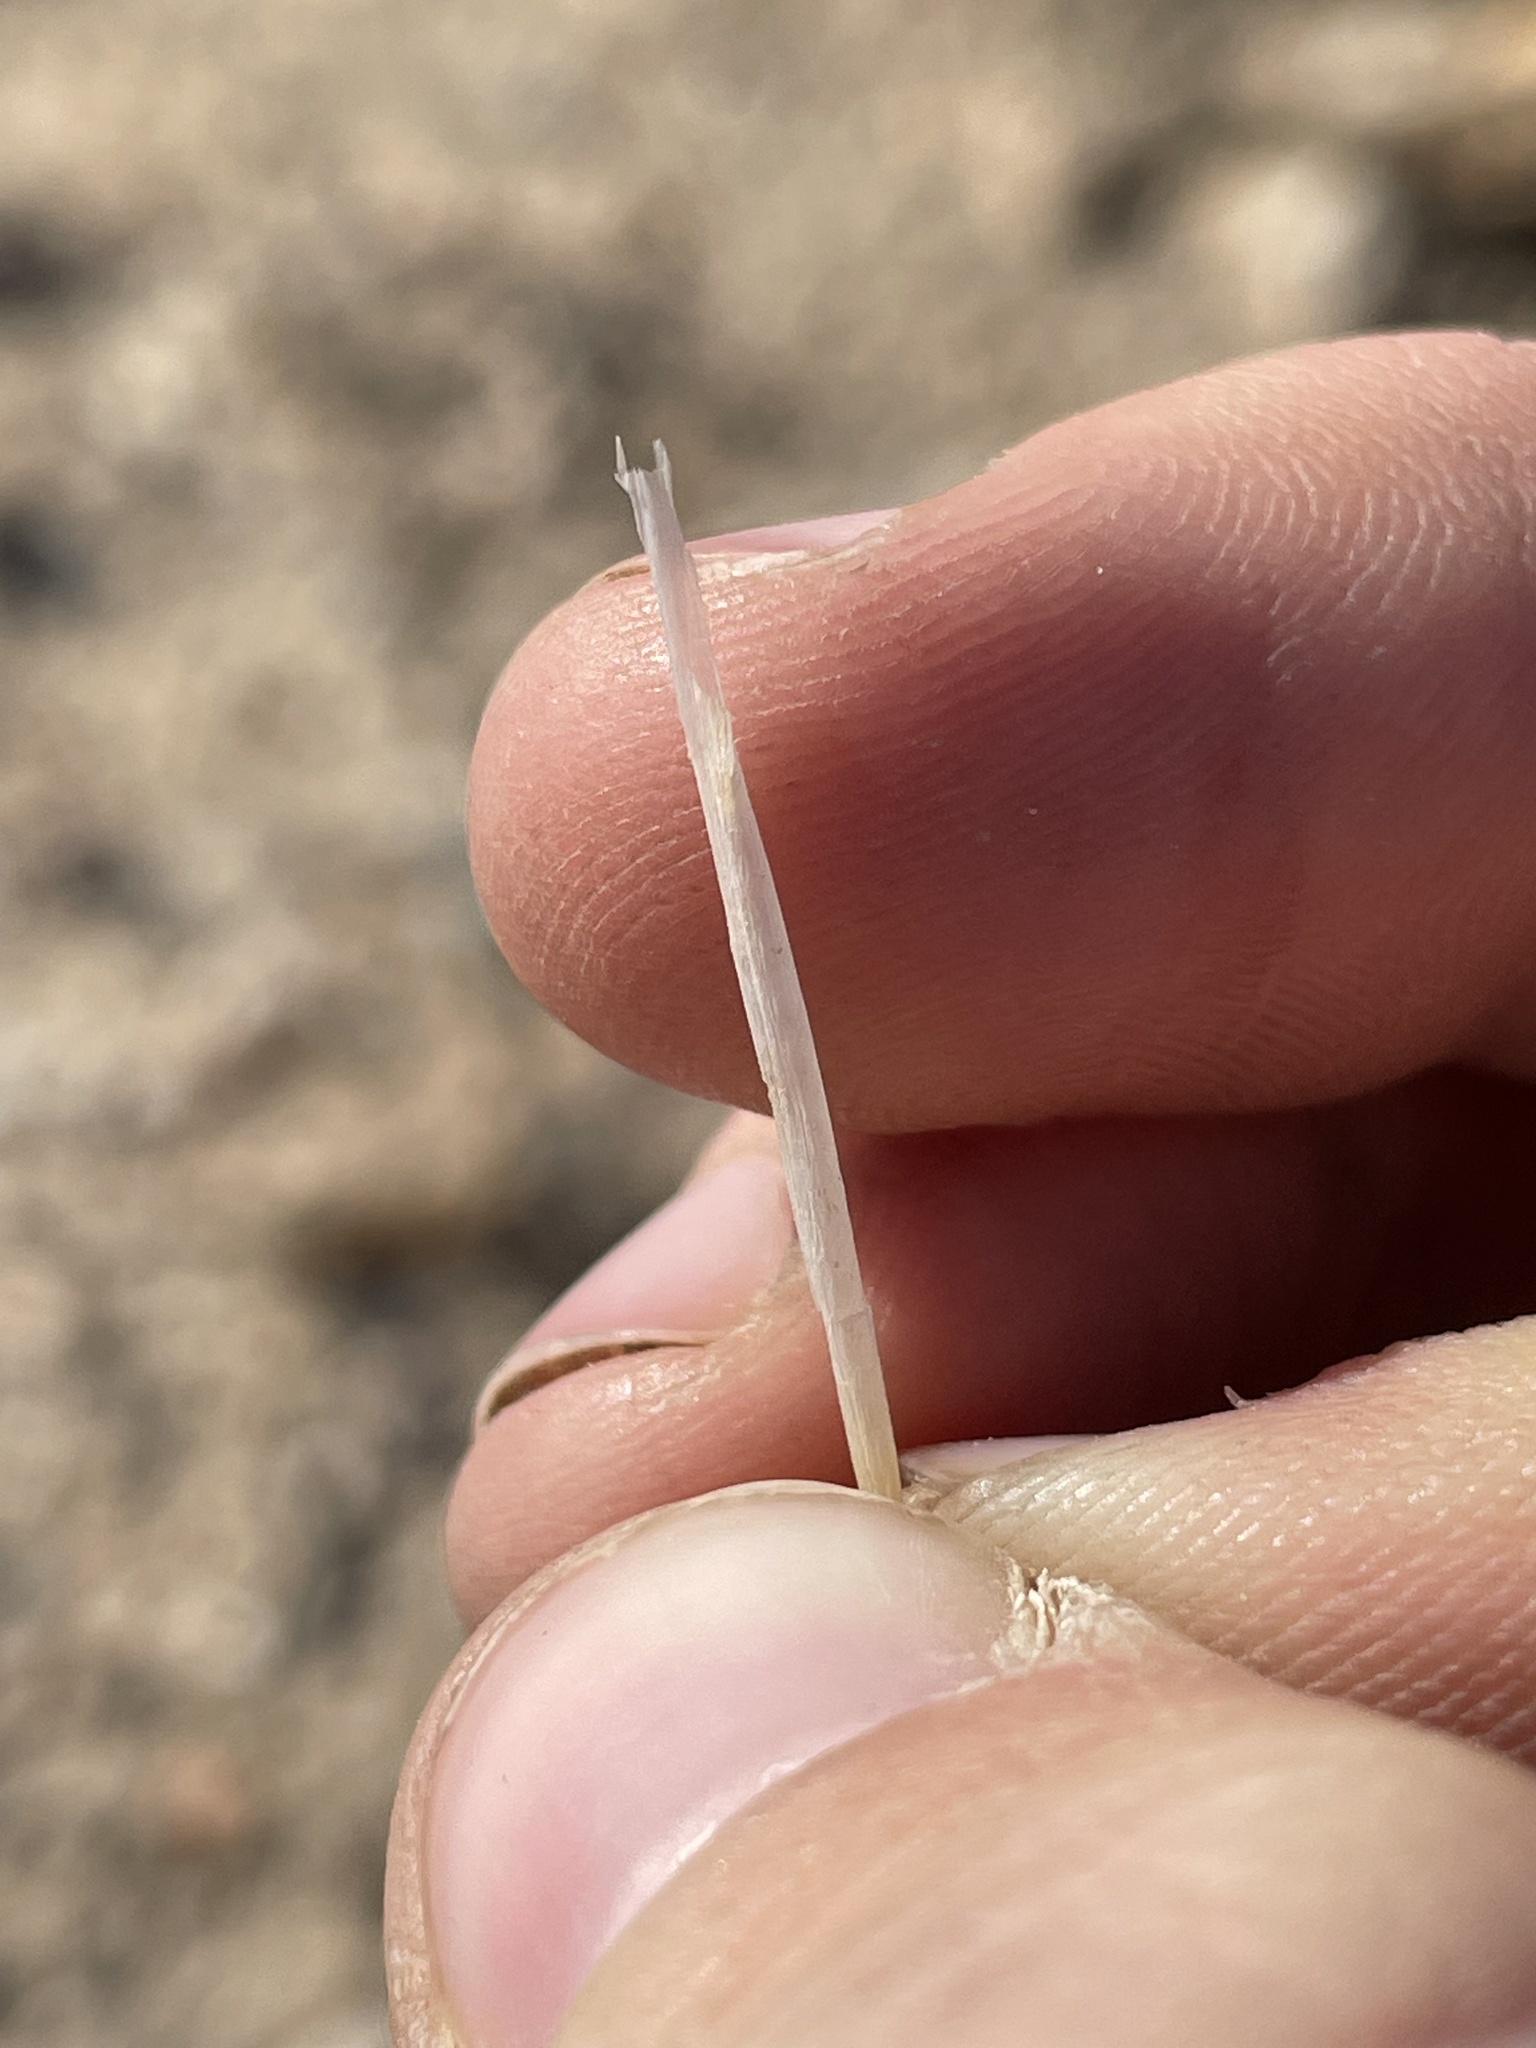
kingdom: Plantae
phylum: Tracheophyta
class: Magnoliopsida
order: Caryophyllales
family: Cactaceae
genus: Cylindropuntia
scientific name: Cylindropuntia echinocarpa
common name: Ground cholla
